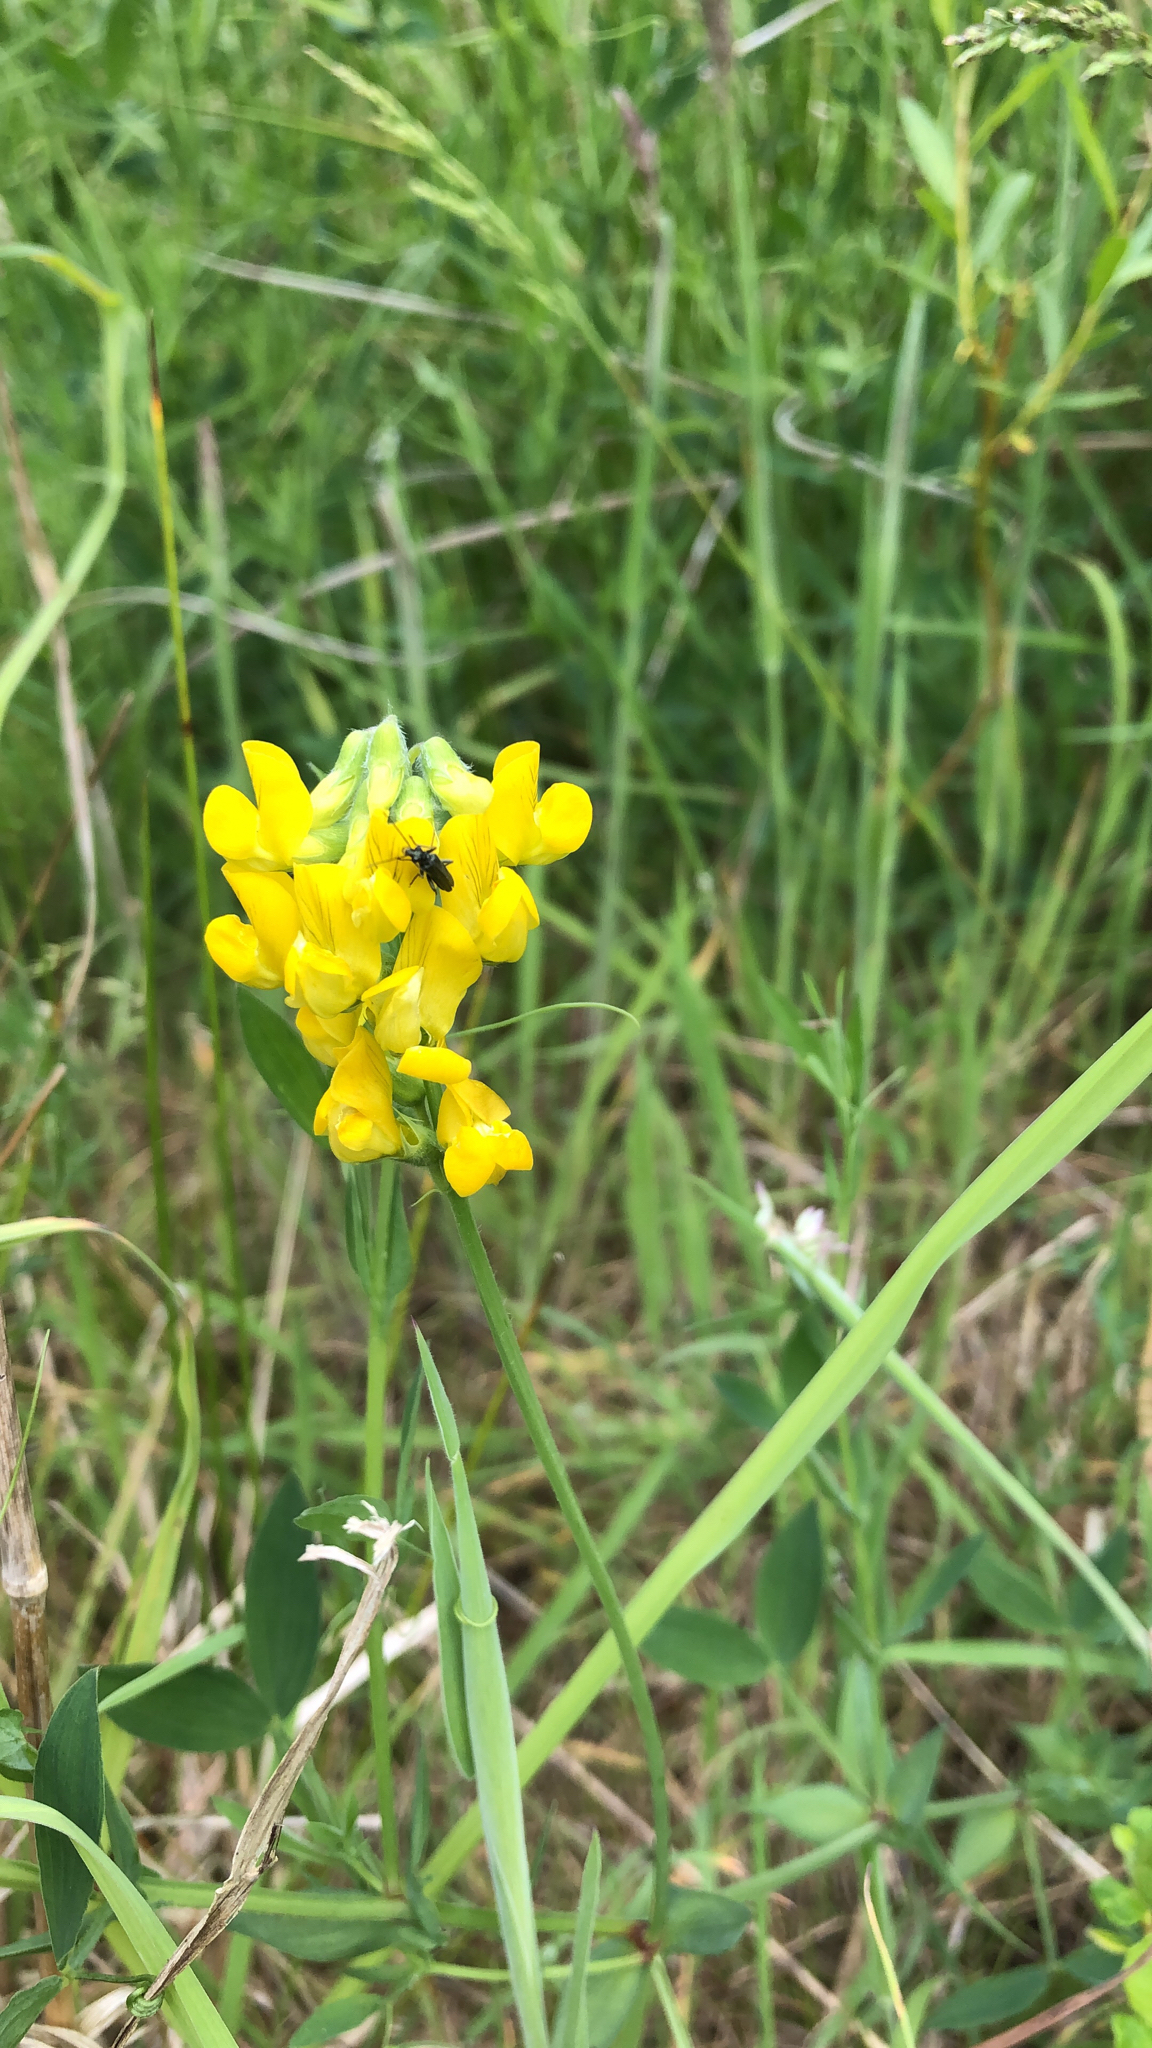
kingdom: Plantae
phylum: Tracheophyta
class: Magnoliopsida
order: Fabales
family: Fabaceae
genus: Lathyrus
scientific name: Lathyrus pratensis
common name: Meadow vetchling
